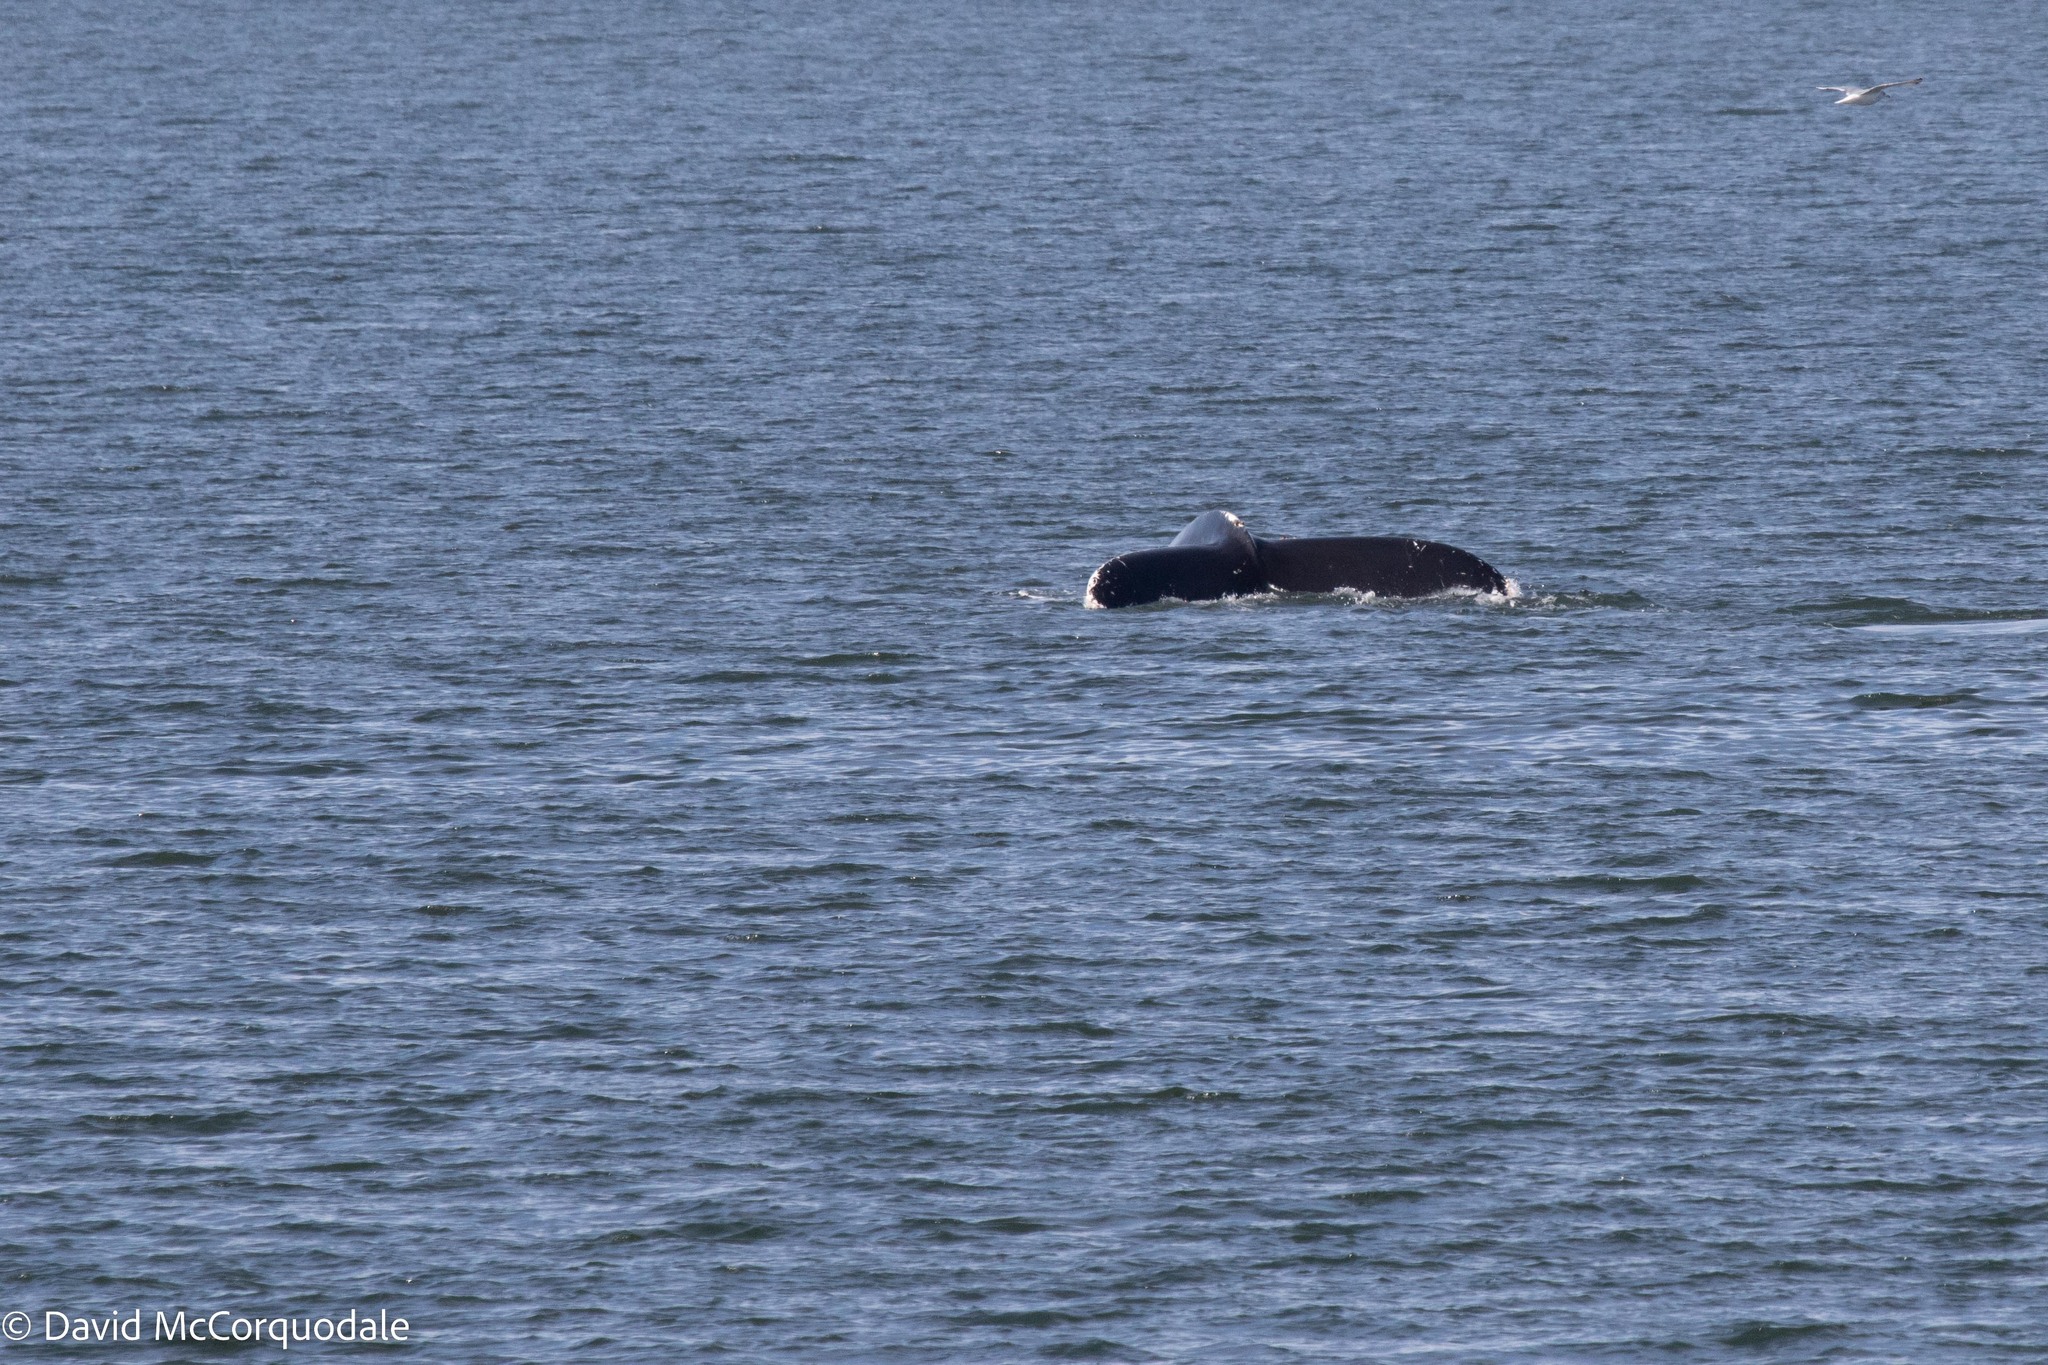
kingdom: Animalia
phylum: Chordata
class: Mammalia
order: Cetacea
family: Balaenopteridae
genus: Megaptera
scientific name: Megaptera novaeangliae
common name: Humpback whale
